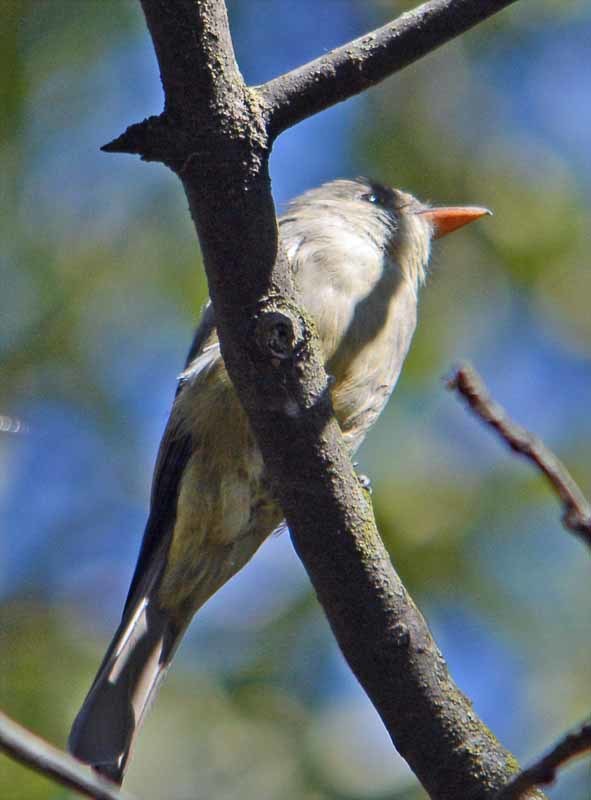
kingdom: Animalia
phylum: Chordata
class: Aves
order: Passeriformes
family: Tyrannidae
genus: Contopus
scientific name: Contopus pertinax
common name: Greater pewee
